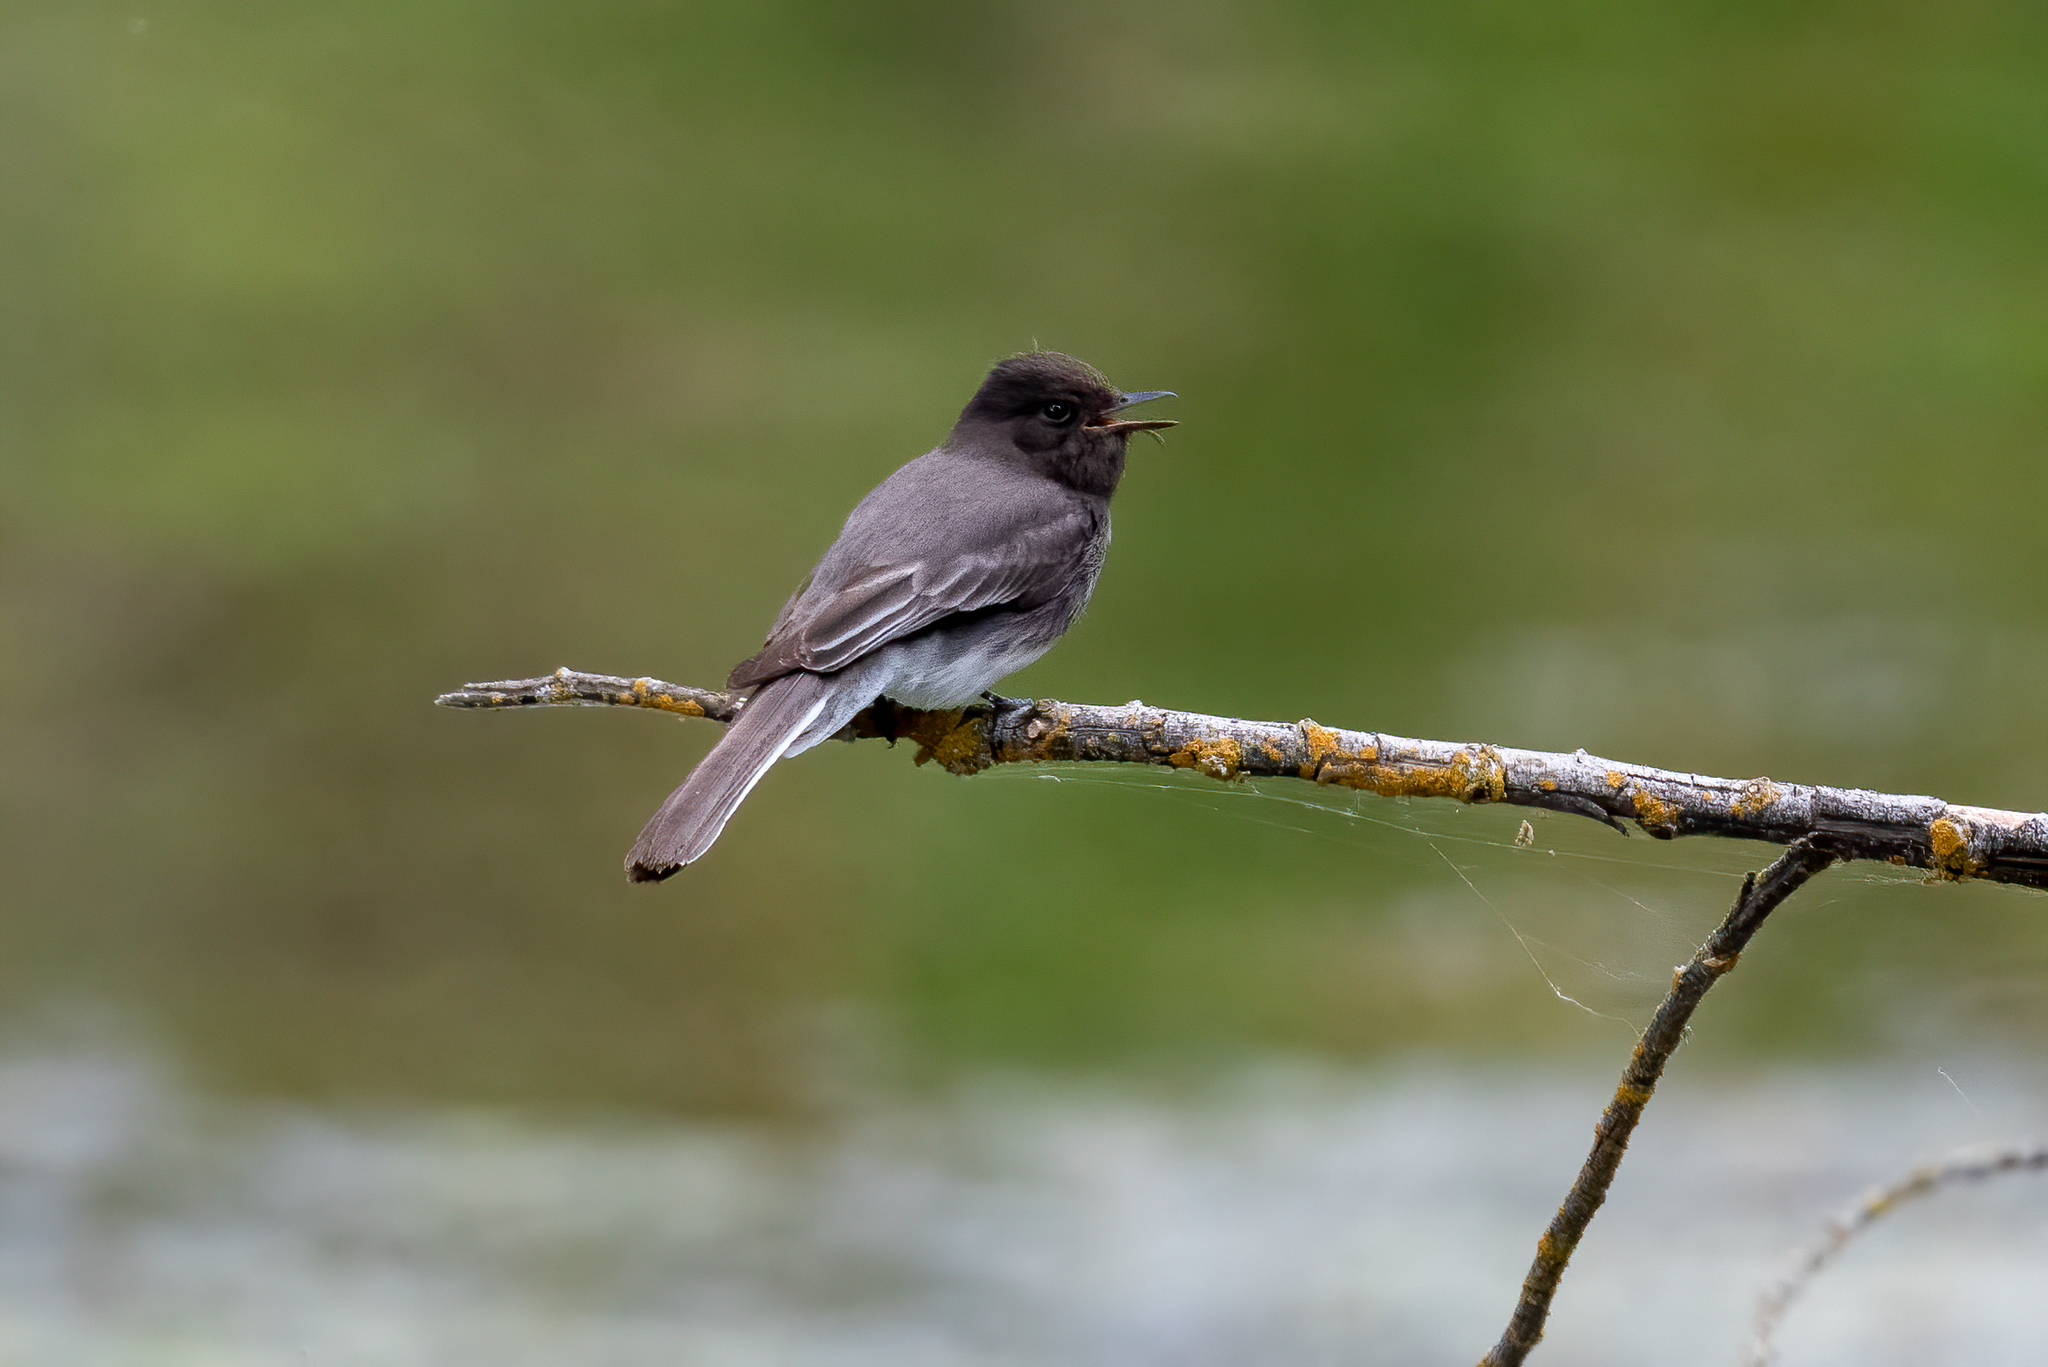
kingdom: Animalia
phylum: Chordata
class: Aves
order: Passeriformes
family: Tyrannidae
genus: Sayornis
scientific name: Sayornis nigricans
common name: Black phoebe
